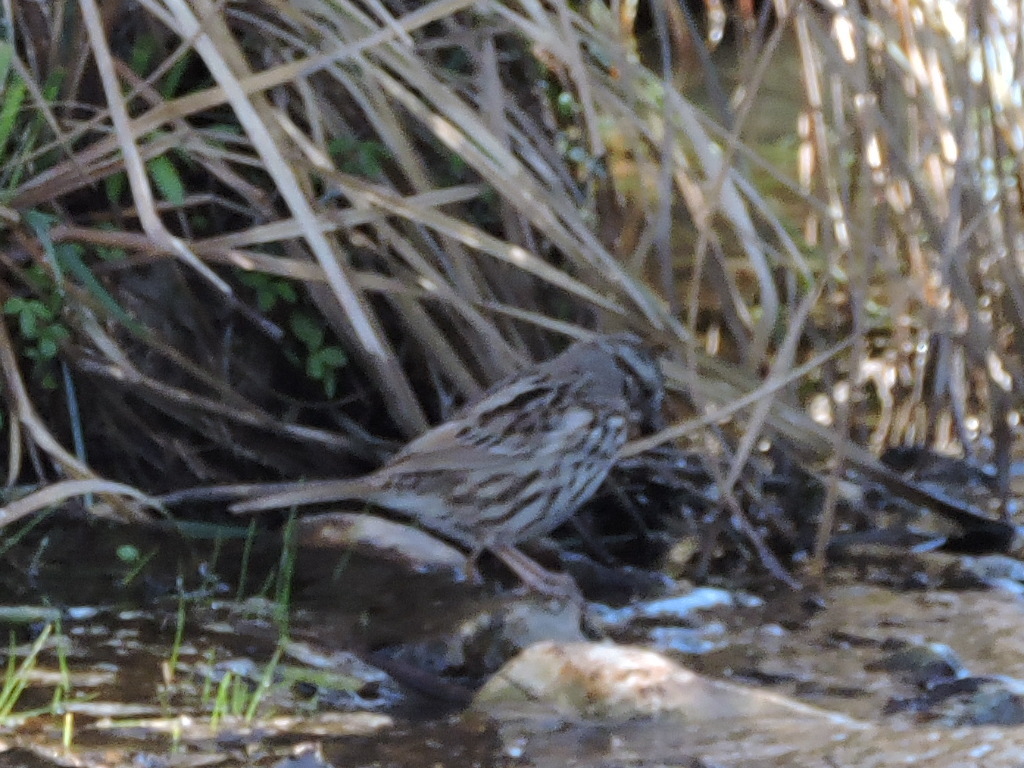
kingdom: Animalia
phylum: Chordata
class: Aves
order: Passeriformes
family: Passerellidae
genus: Melospiza
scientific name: Melospiza melodia
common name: Song sparrow
